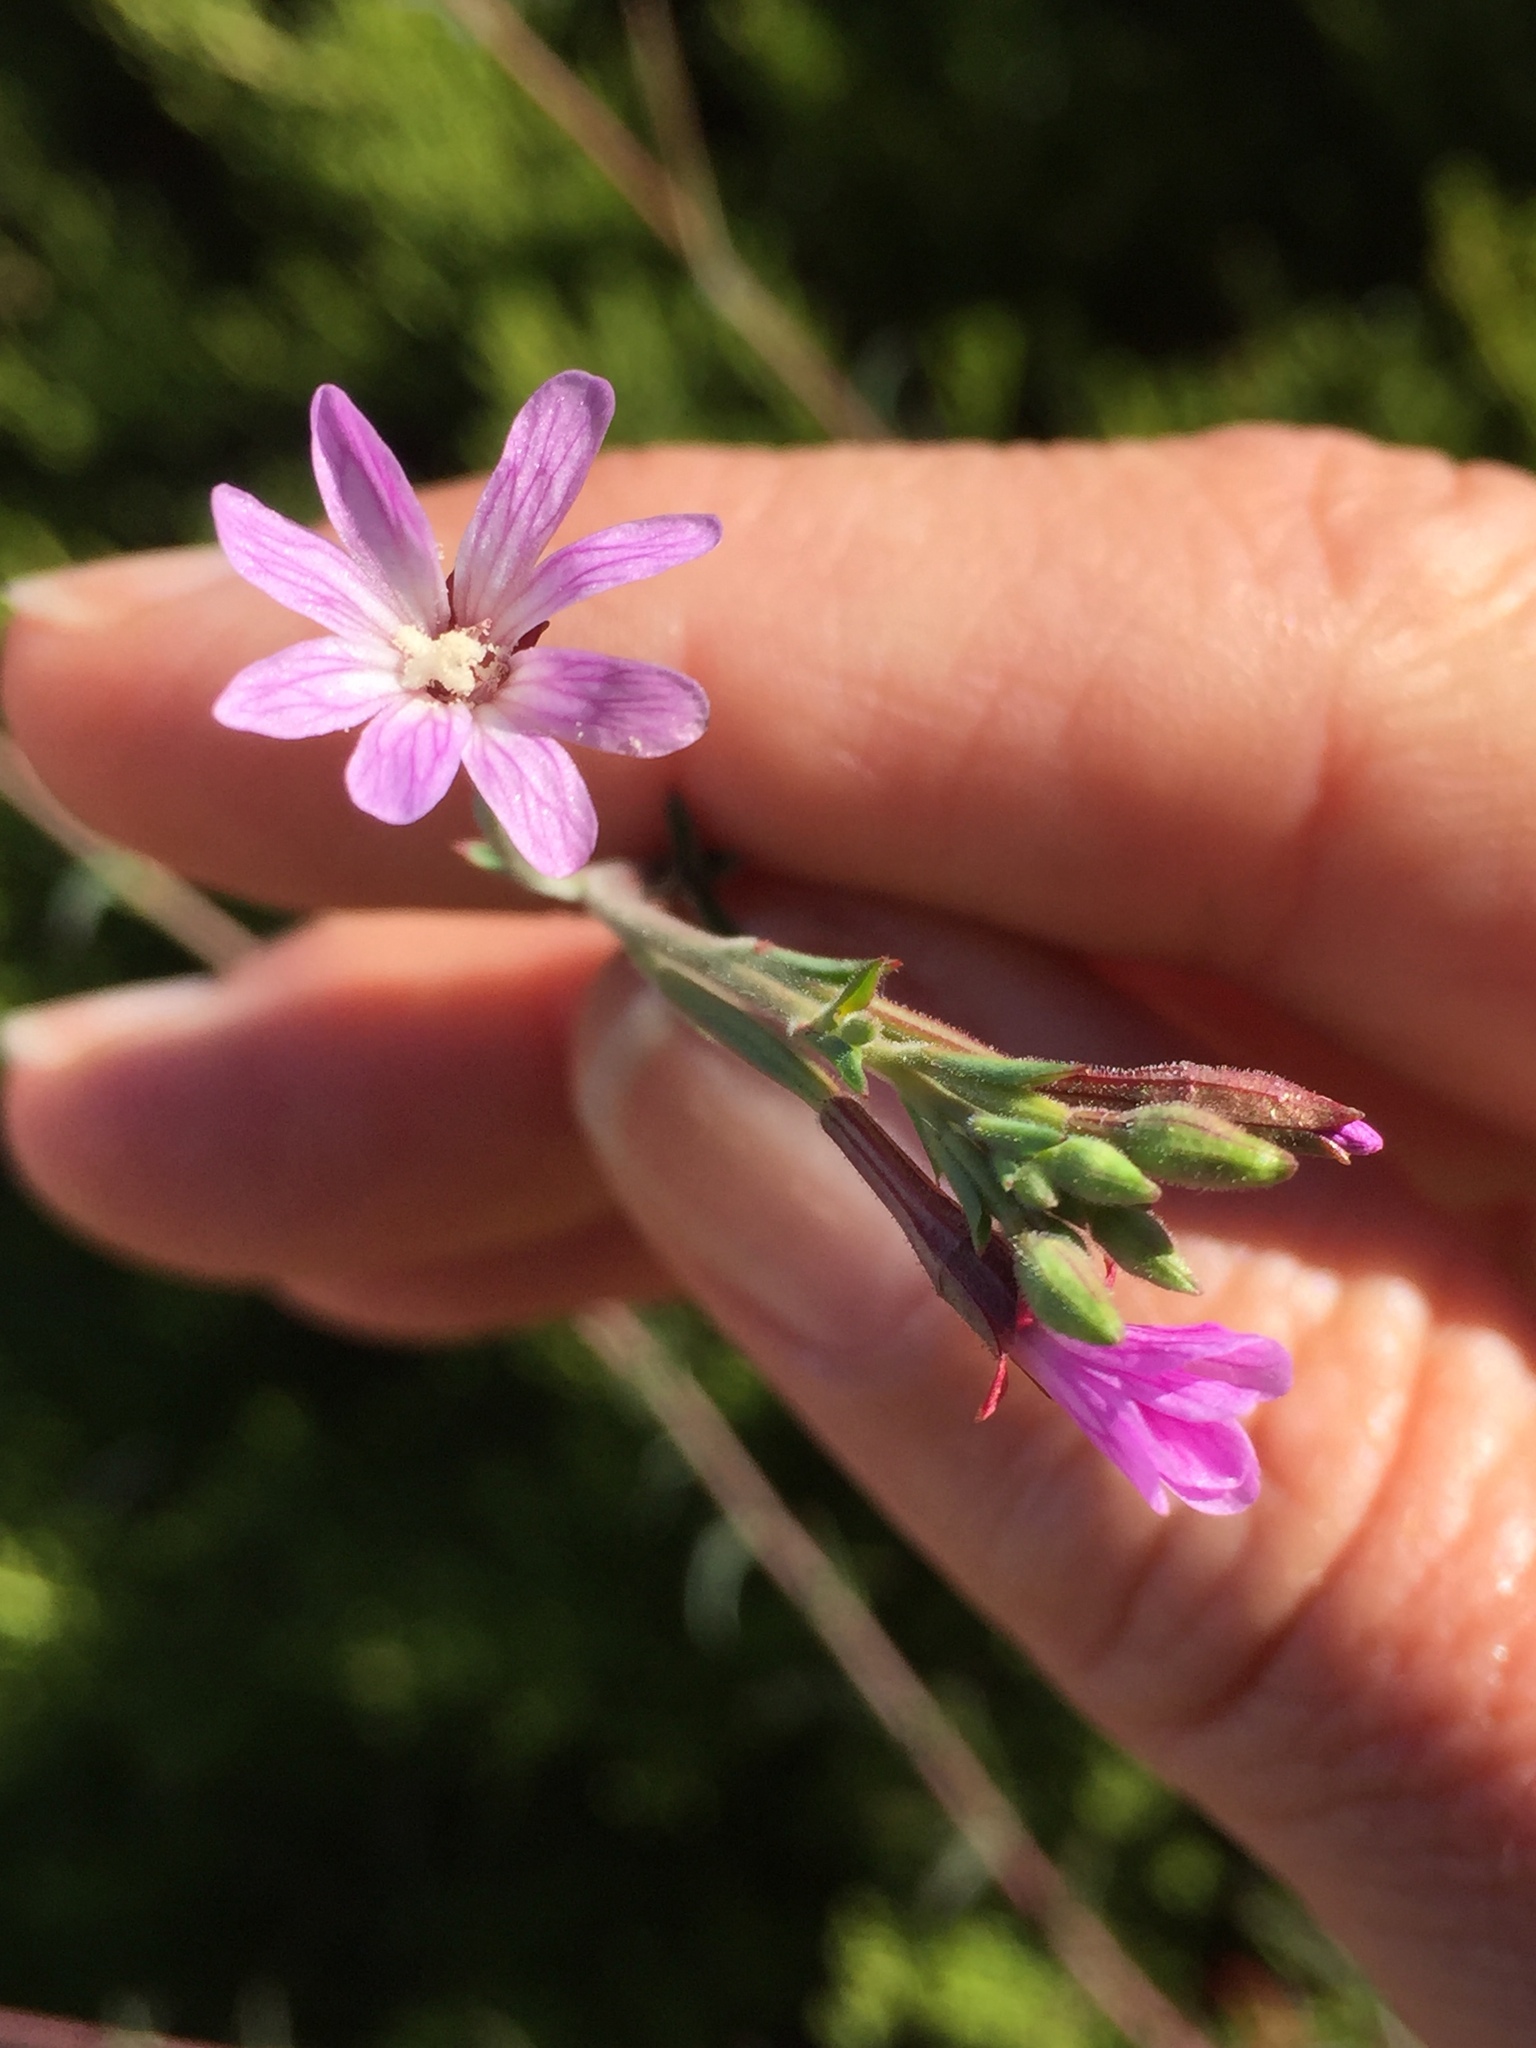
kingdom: Plantae
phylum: Tracheophyta
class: Magnoliopsida
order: Myrtales
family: Onagraceae
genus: Epilobium
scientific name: Epilobium brachycarpum
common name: Annual willowherb
